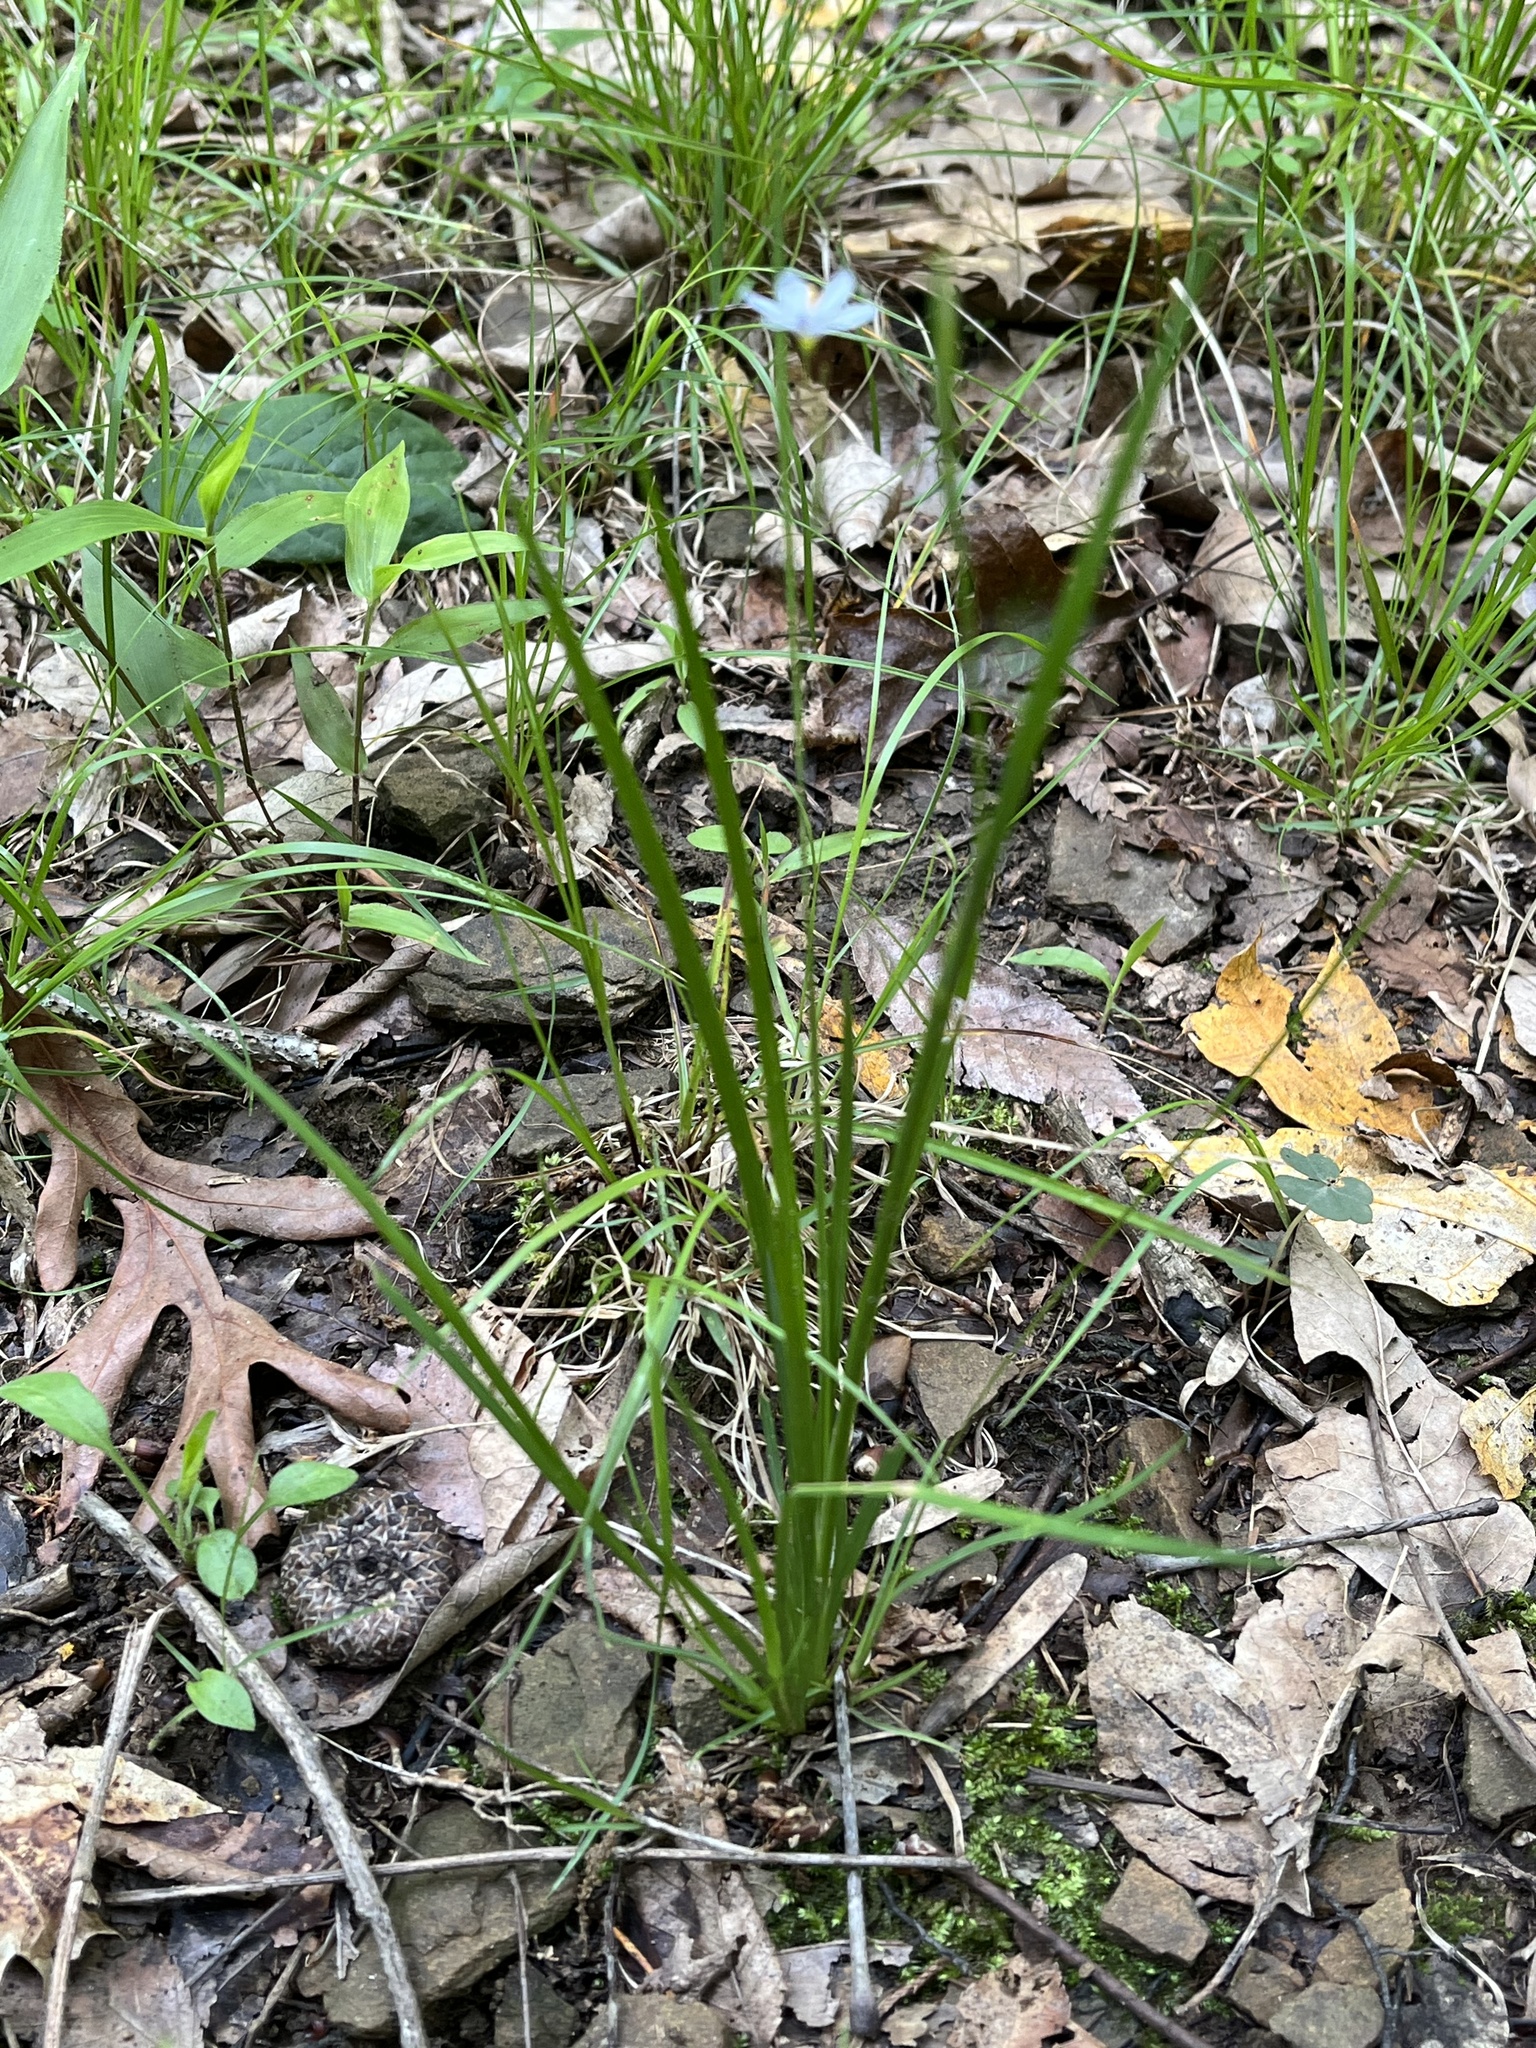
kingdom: Plantae
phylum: Tracheophyta
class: Liliopsida
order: Asparagales
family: Iridaceae
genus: Sisyrinchium
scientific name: Sisyrinchium angustifolium
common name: Narrow-leaf blue-eyed-grass
